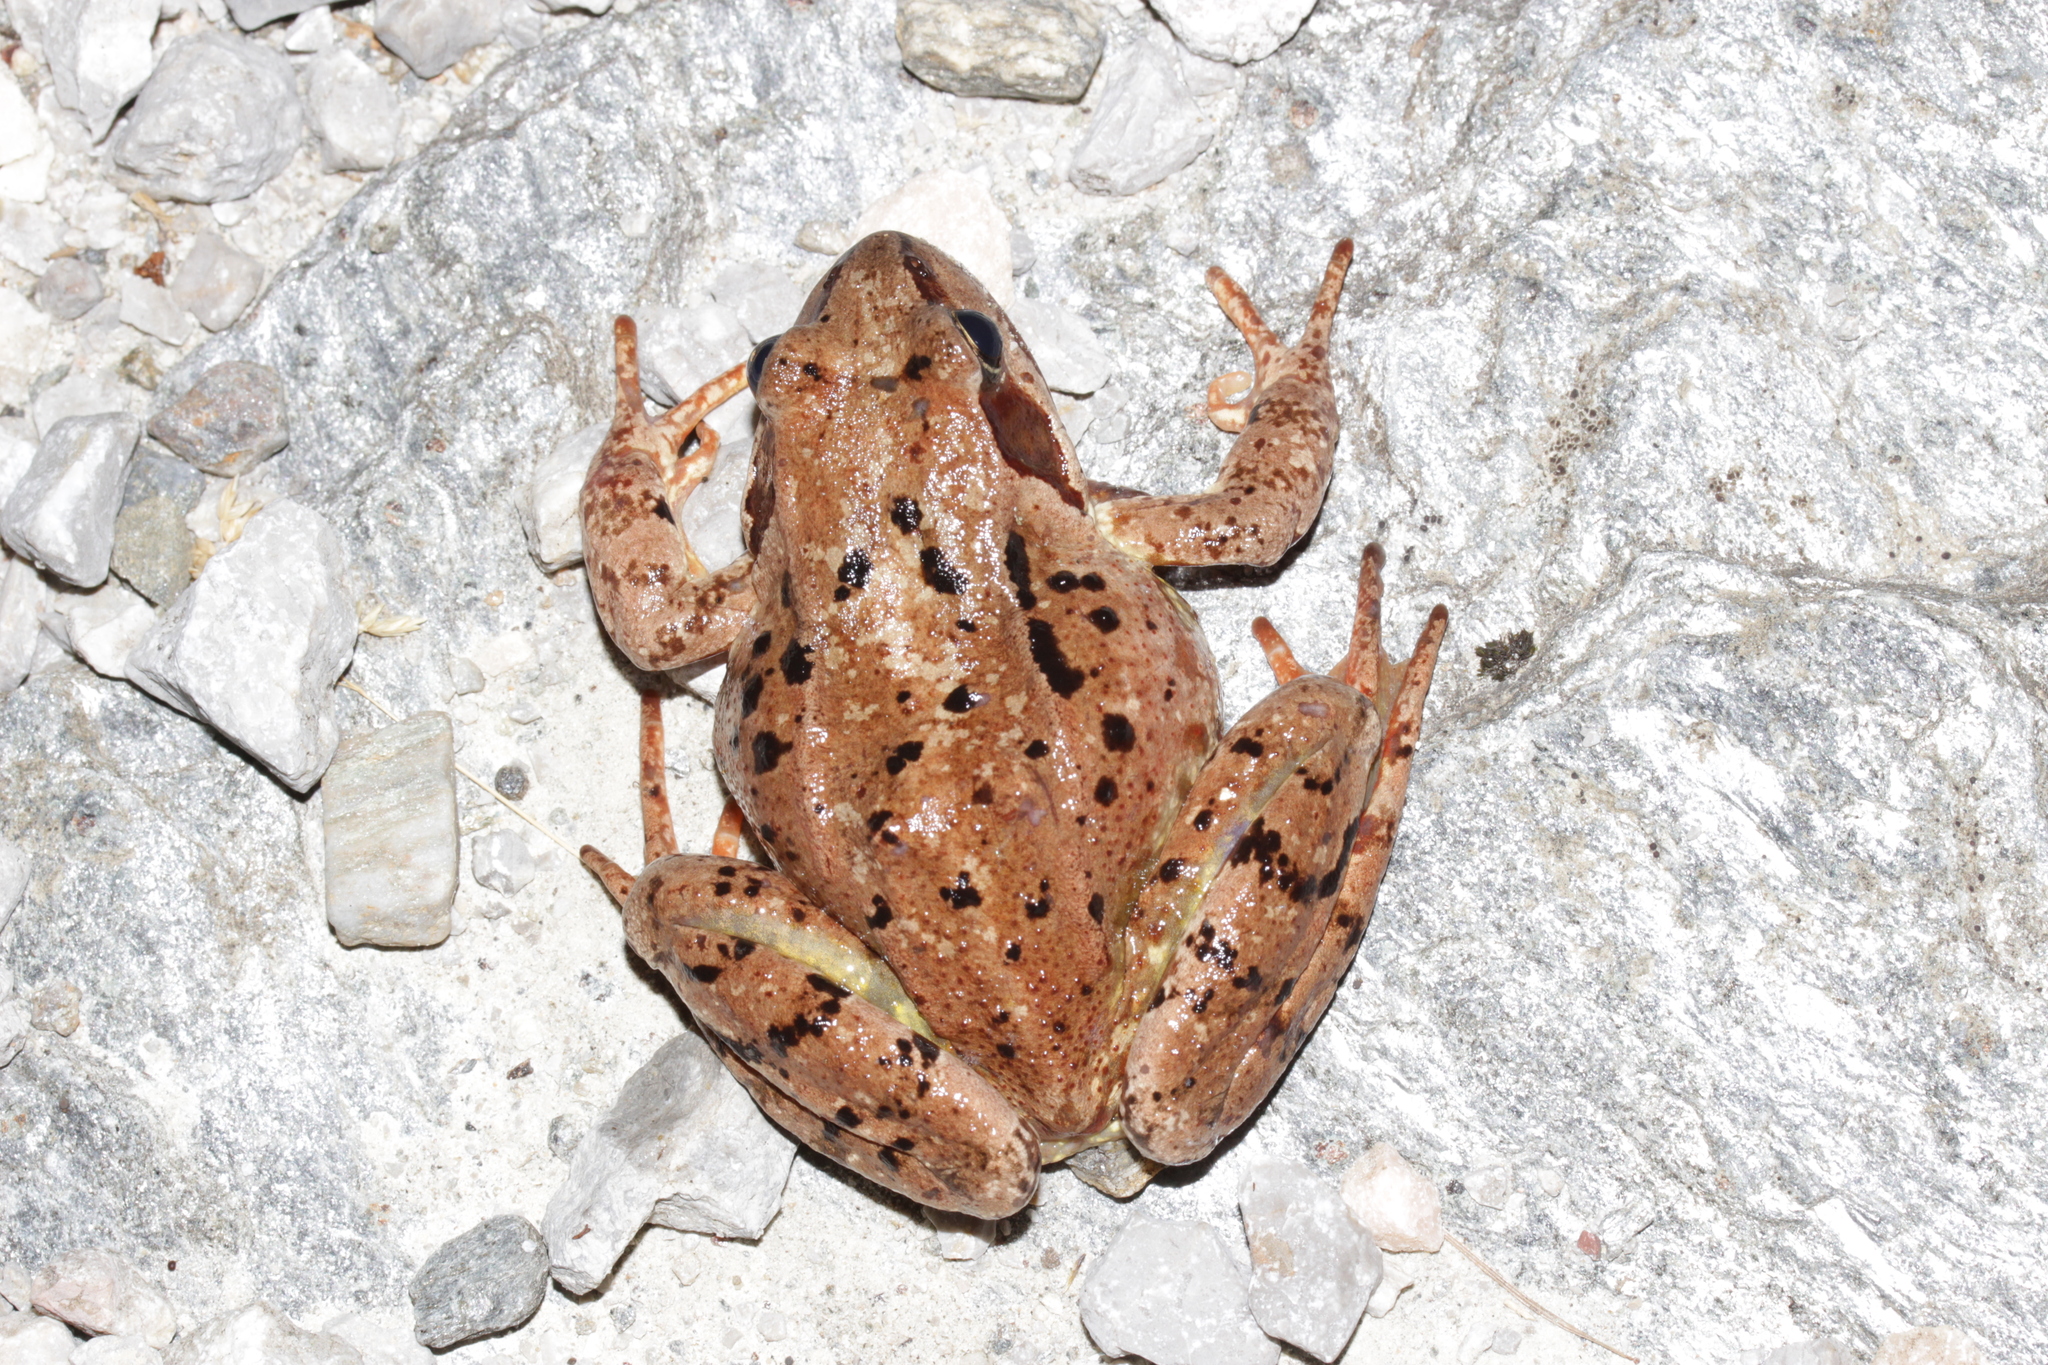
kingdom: Animalia
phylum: Chordata
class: Amphibia
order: Anura
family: Ranidae
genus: Rana
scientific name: Rana temporaria
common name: Common frog
